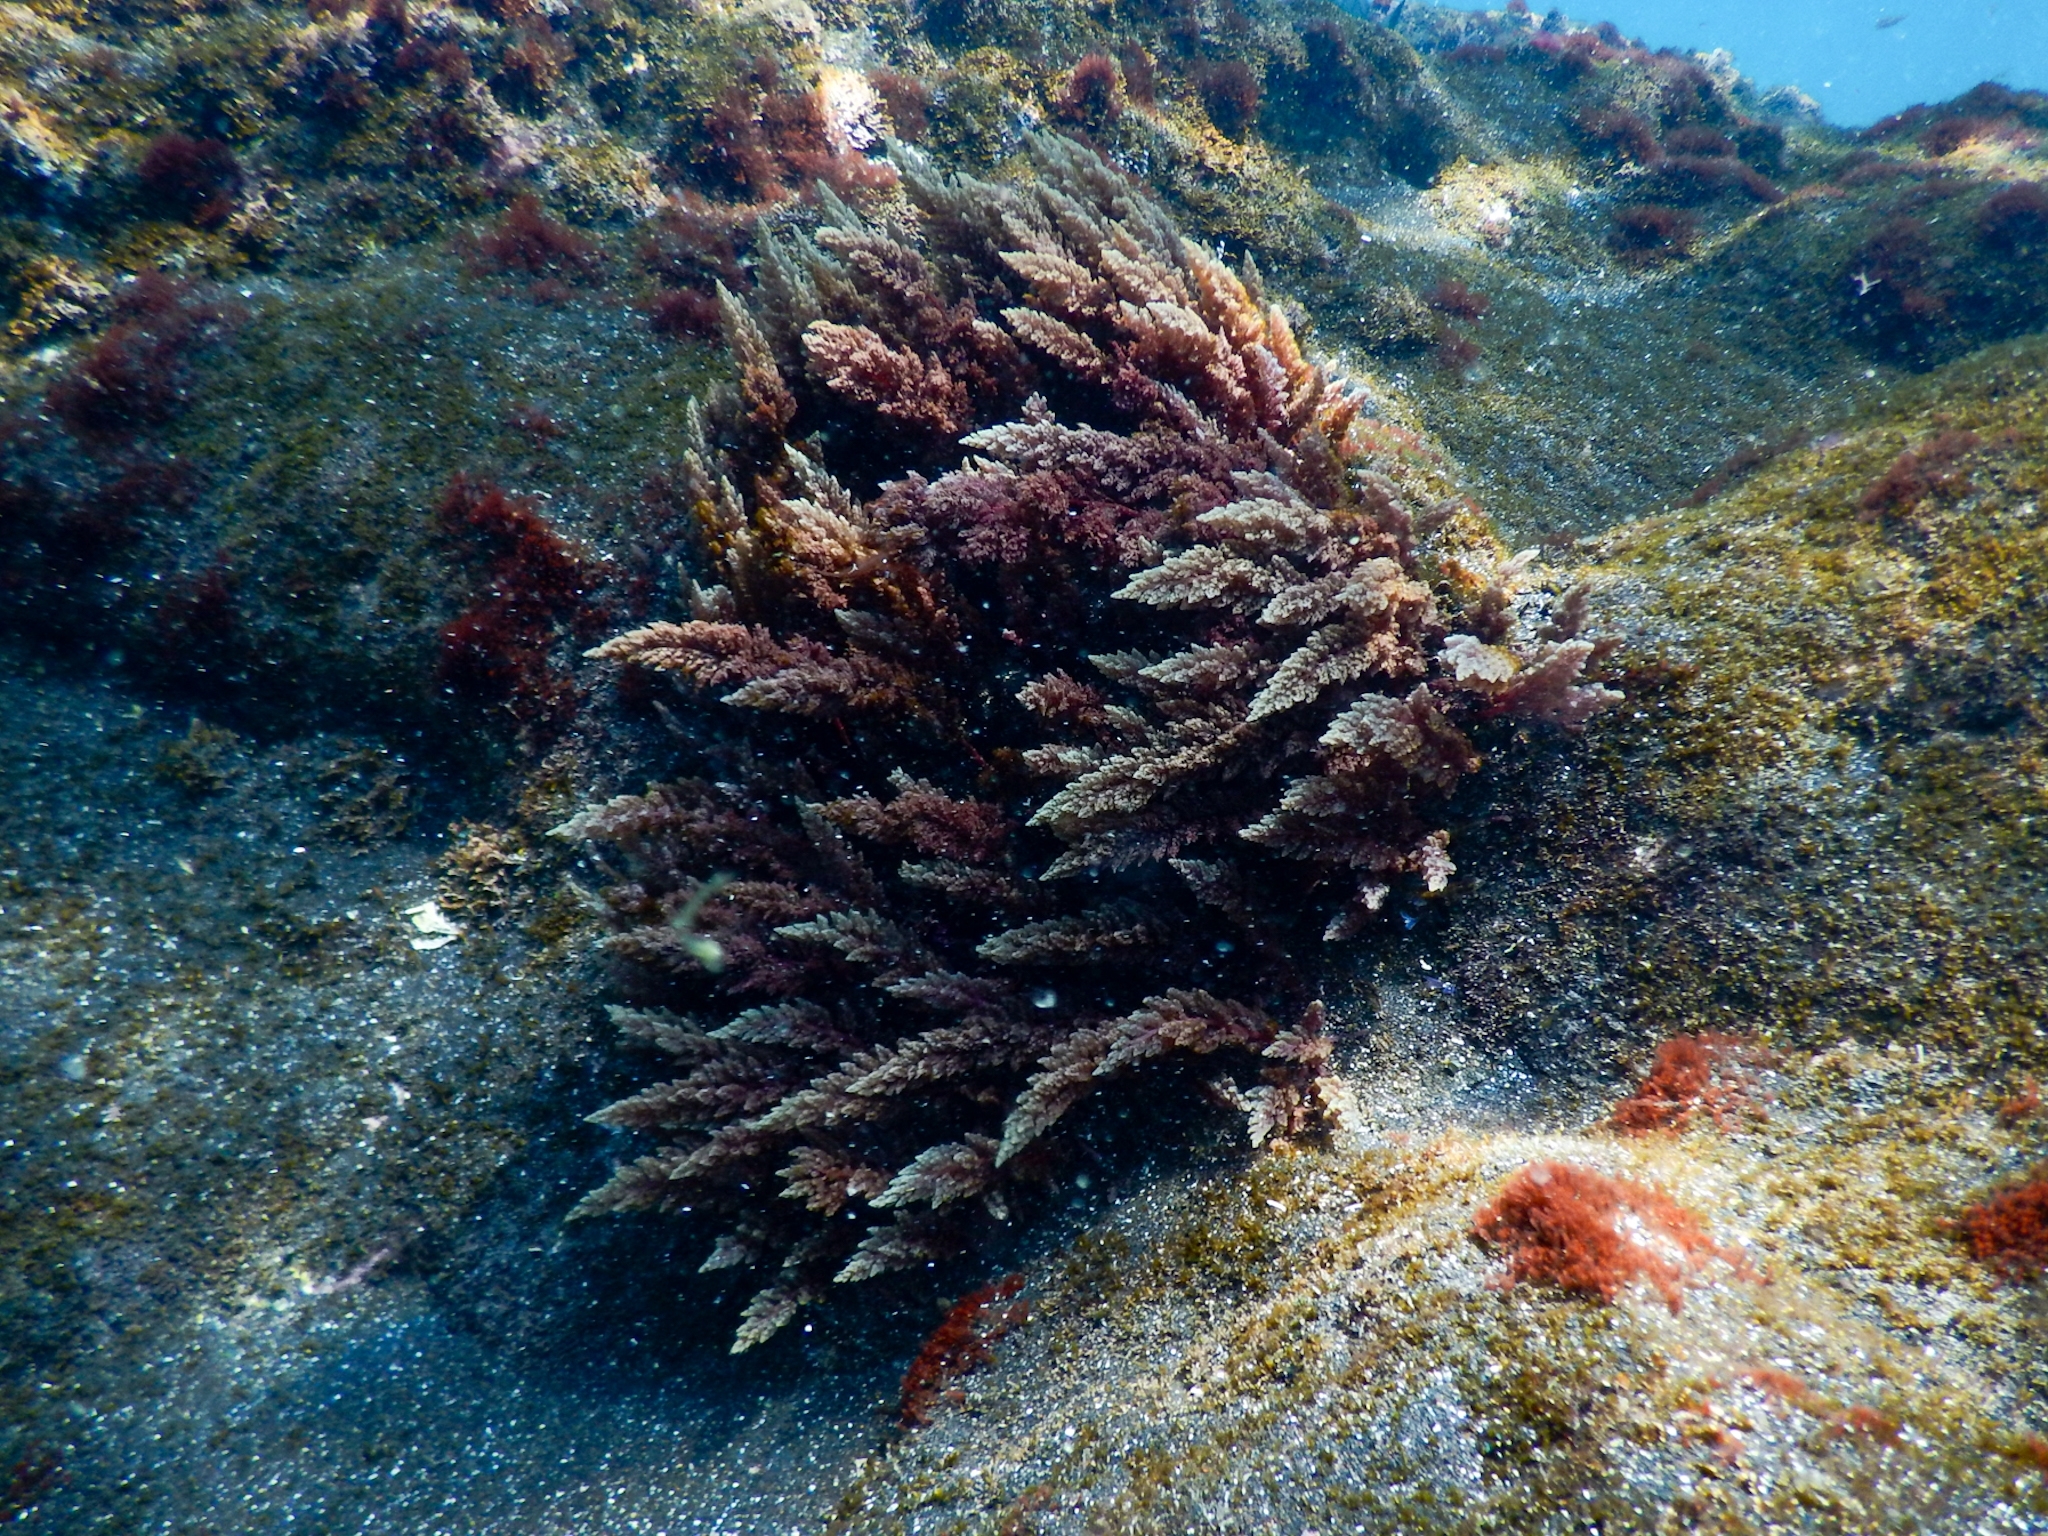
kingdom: Plantae
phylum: Rhodophyta
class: Florideophyceae
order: Bonnemaisoniales
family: Bonnemaisoniaceae
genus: Asparagopsis
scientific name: Asparagopsis taxiformis
